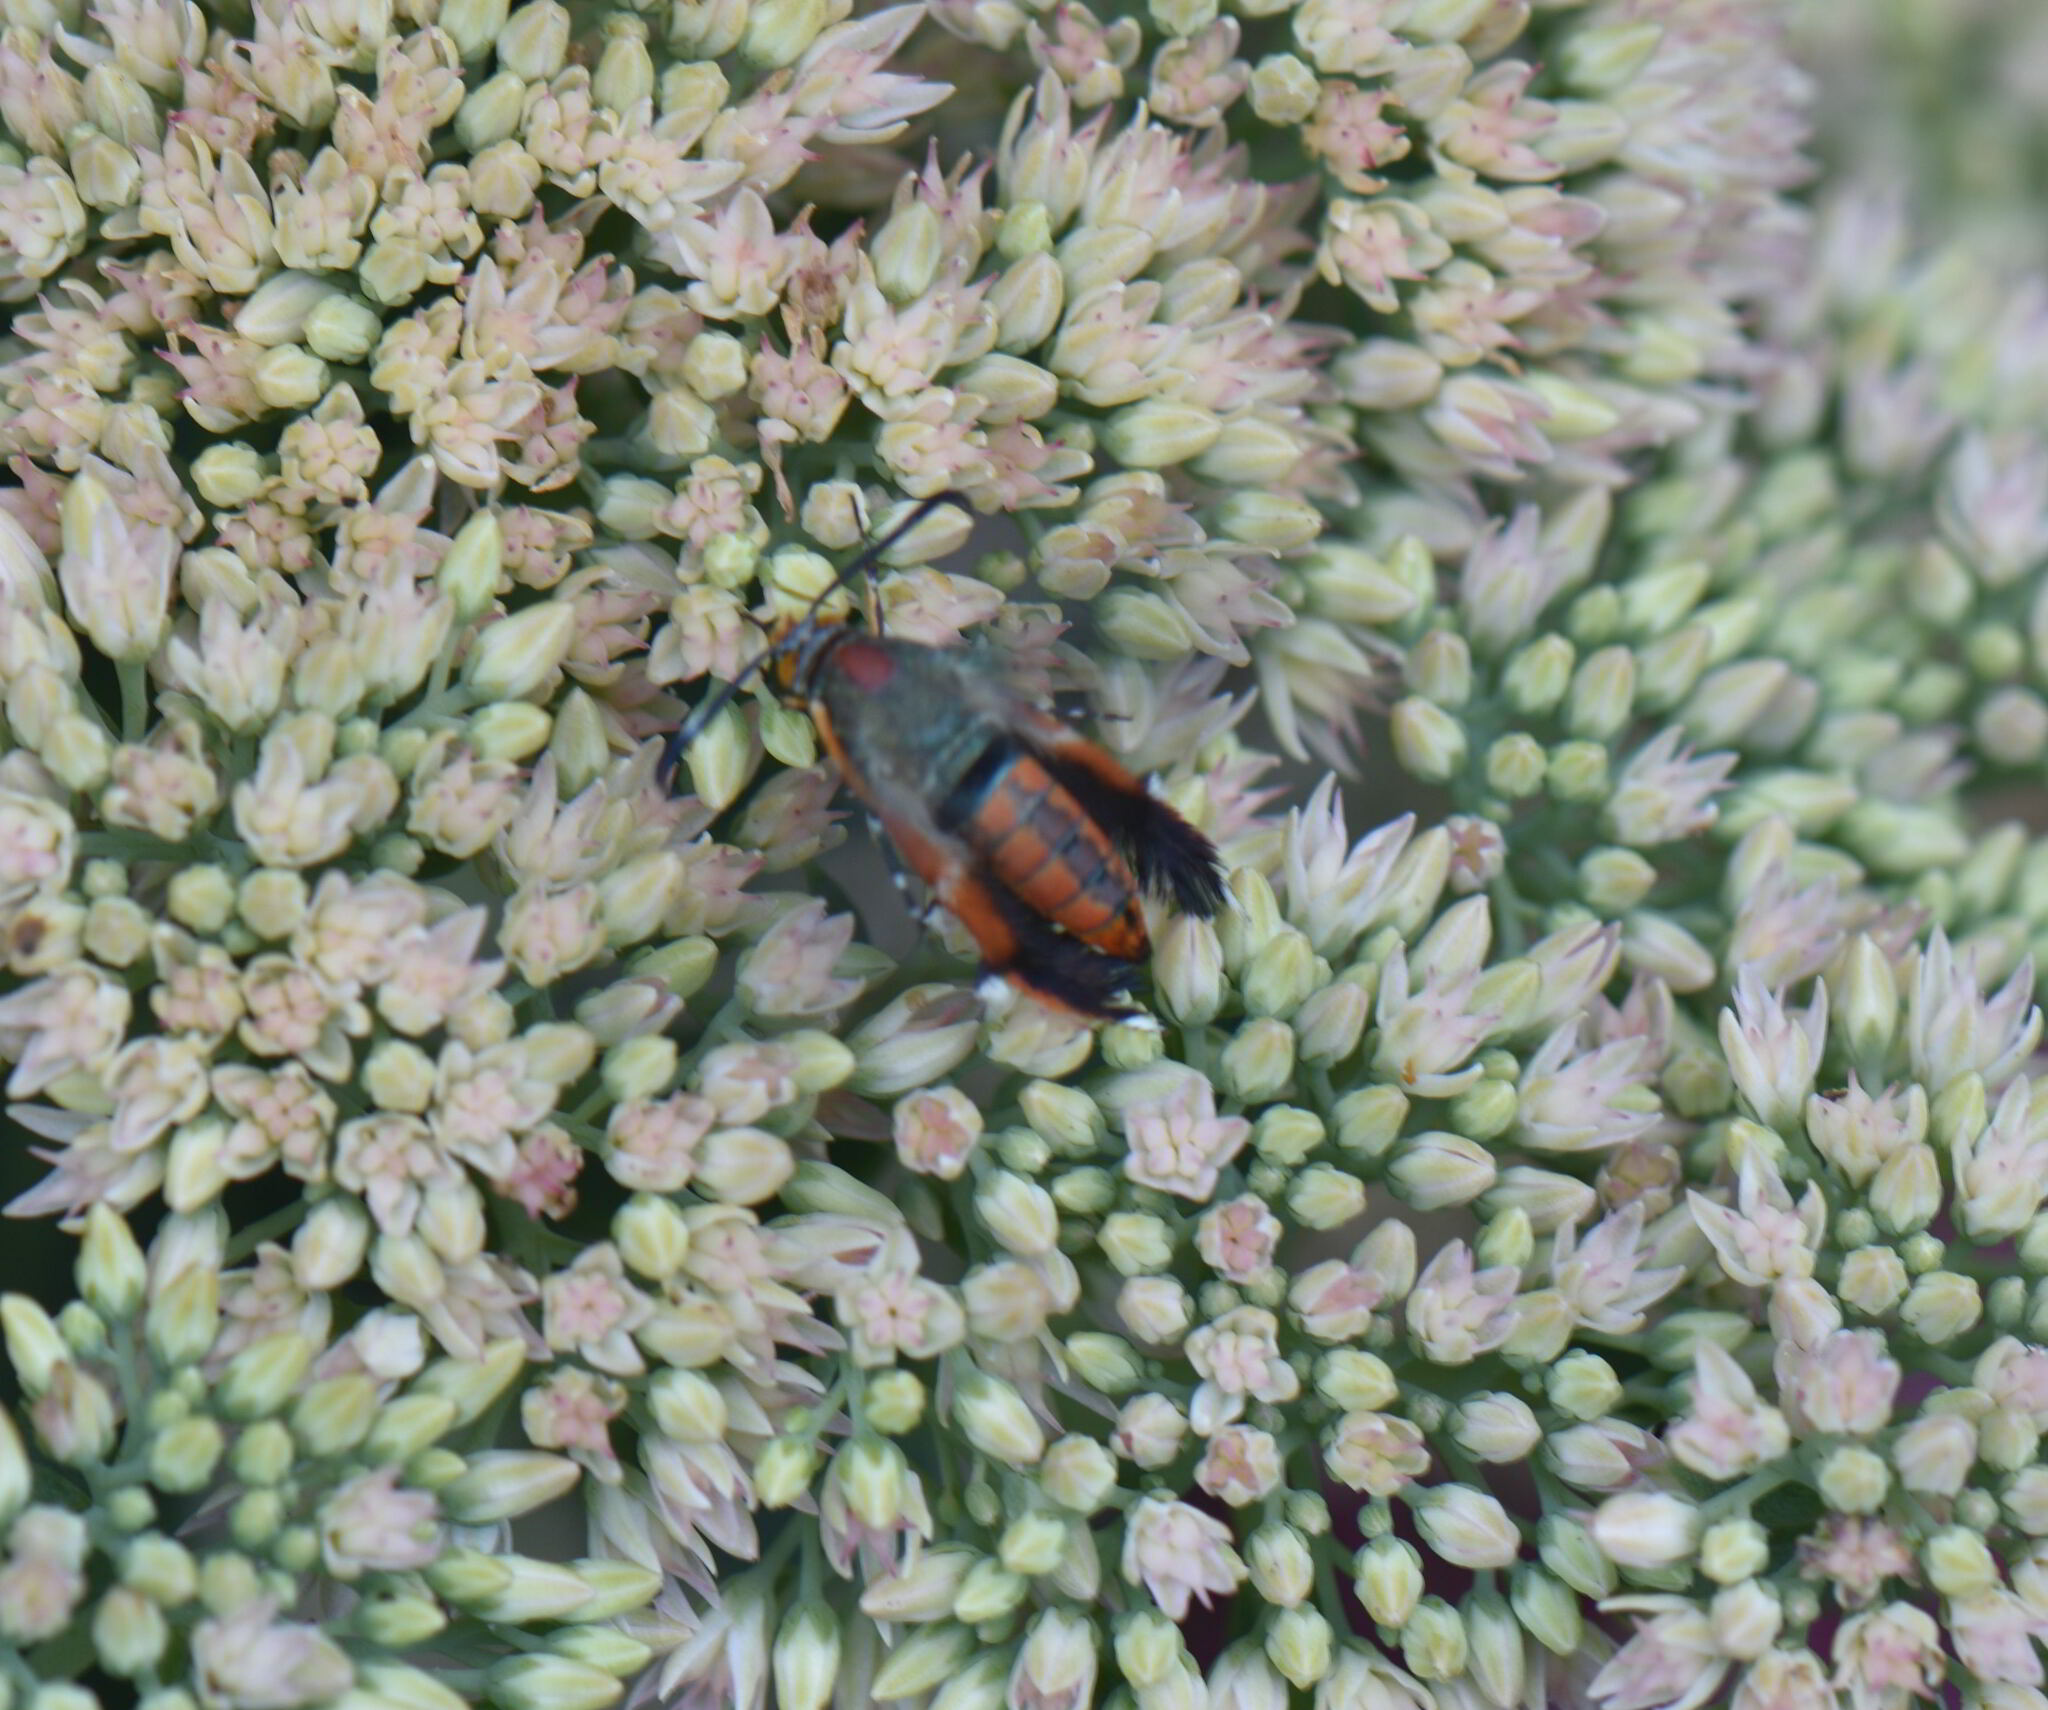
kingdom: Animalia
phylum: Arthropoda
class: Insecta
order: Lepidoptera
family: Sesiidae
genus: Eichlinia
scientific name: Eichlinia cucurbitae
